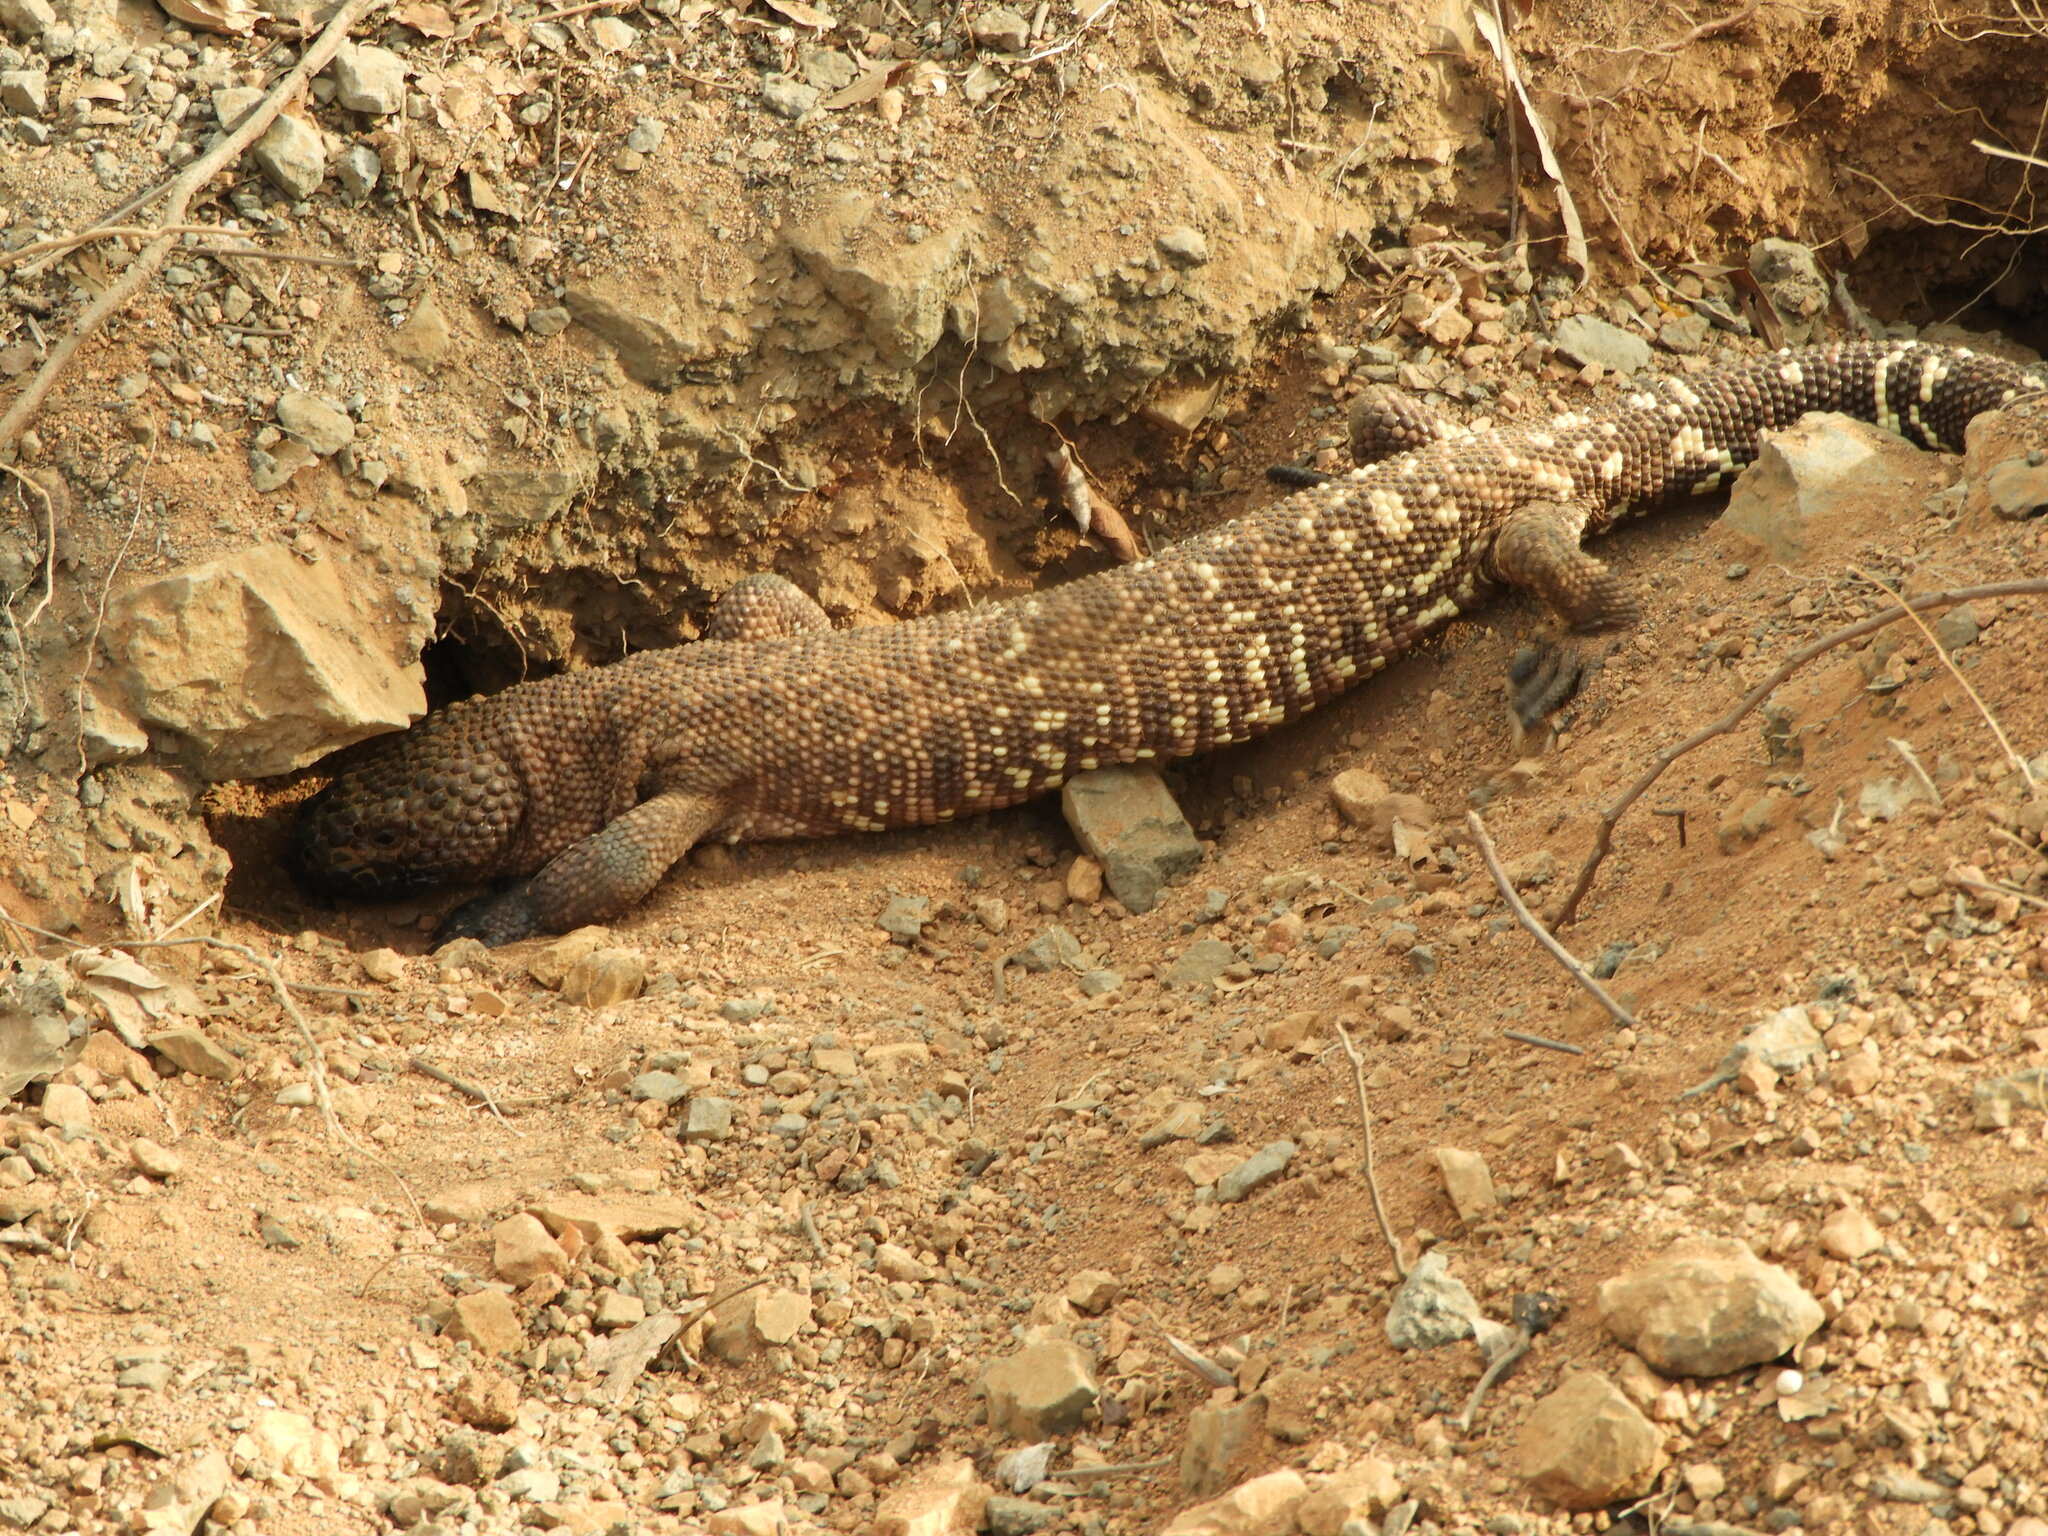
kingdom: Animalia
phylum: Chordata
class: Squamata
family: Helodermatidae
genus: Heloderma
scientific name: Heloderma horridum
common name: Mexican beaded lizard
